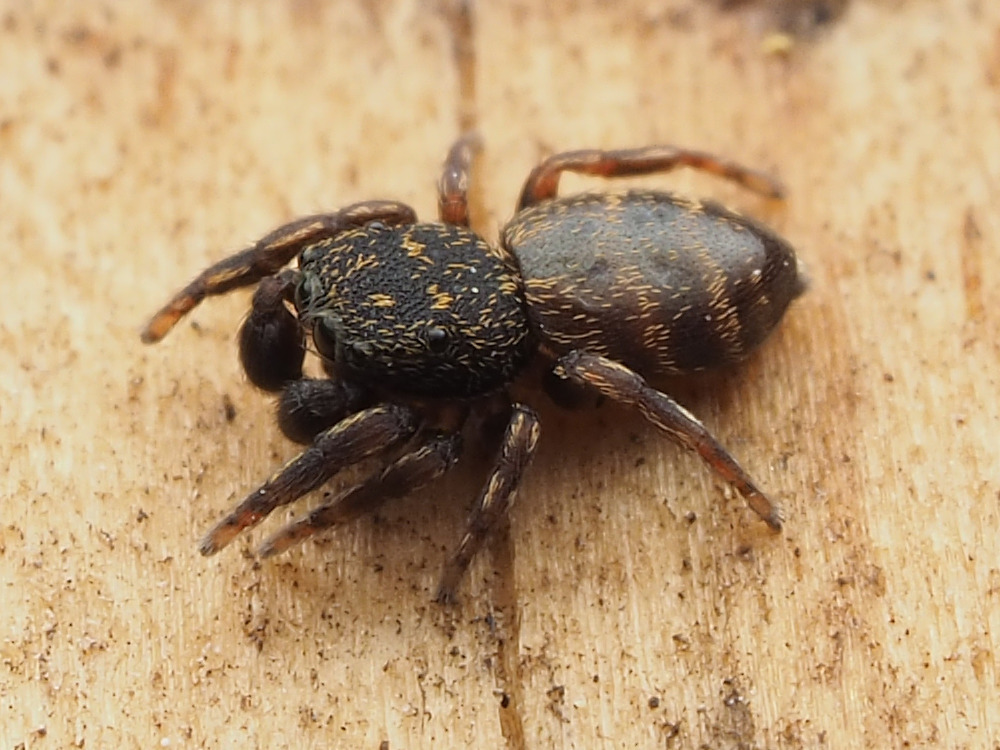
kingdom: Animalia
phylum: Arthropoda
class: Arachnida
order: Araneae
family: Salticidae
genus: Attidops
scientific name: Attidops youngi
